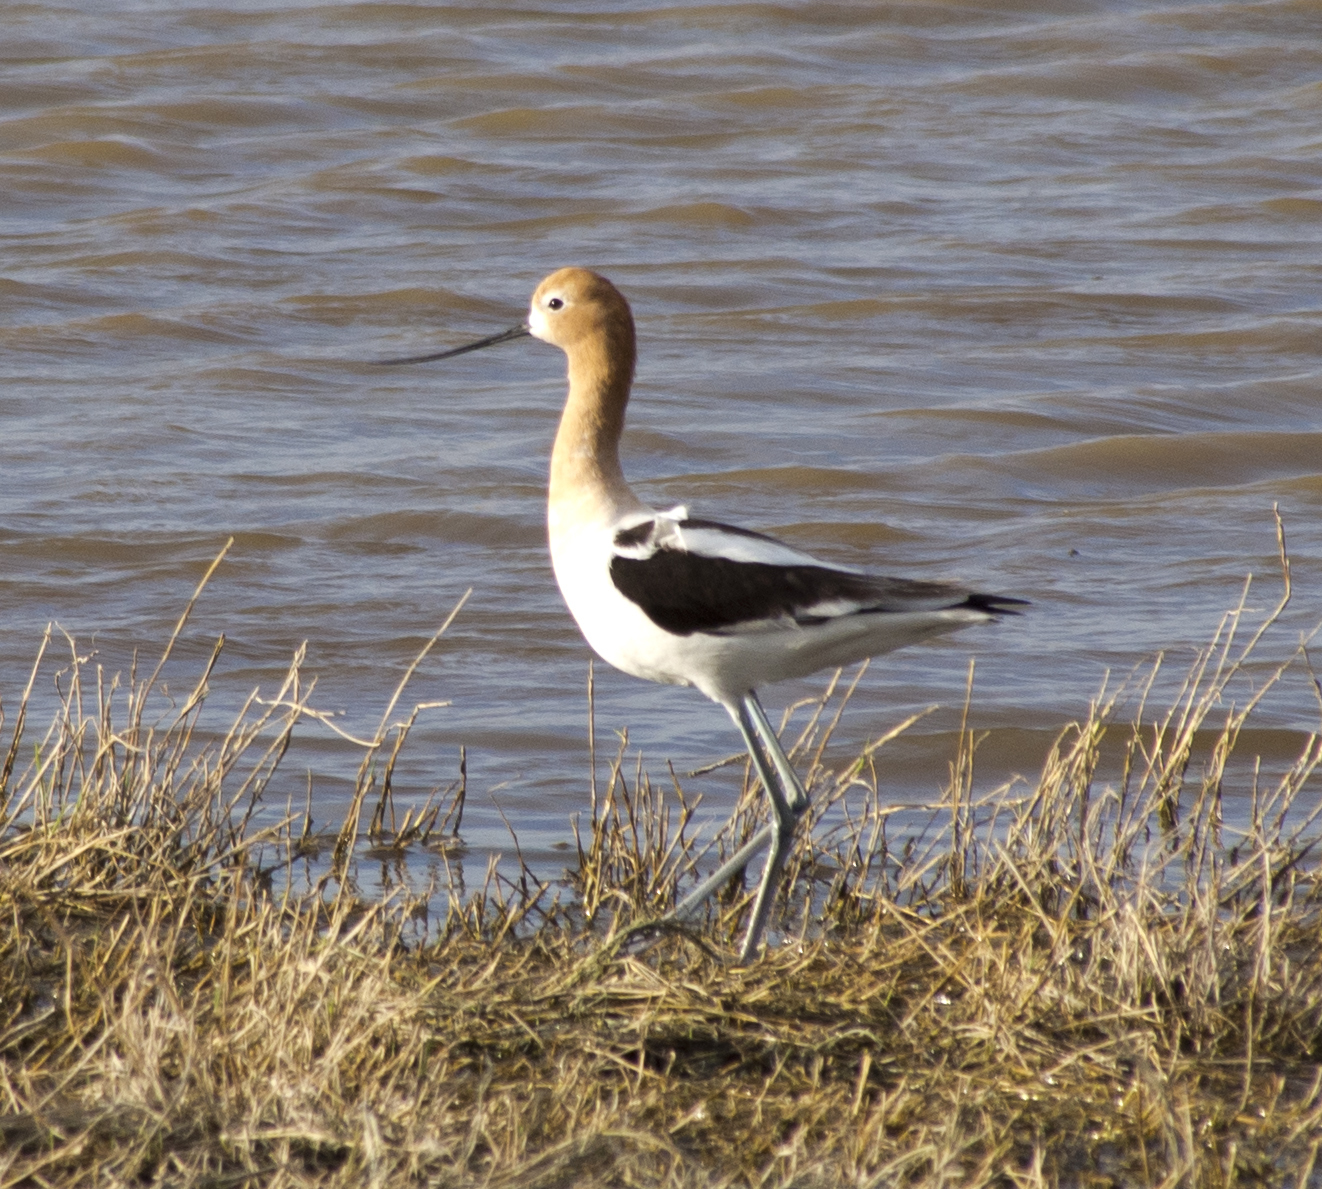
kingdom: Animalia
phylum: Chordata
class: Aves
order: Charadriiformes
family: Recurvirostridae
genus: Recurvirostra
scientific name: Recurvirostra americana
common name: American avocet
